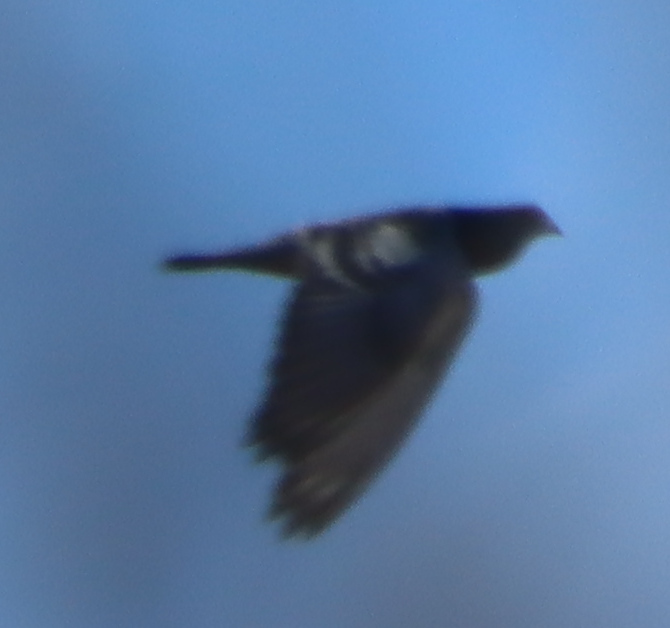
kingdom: Animalia
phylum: Chordata
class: Aves
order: Columbiformes
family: Columbidae
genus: Columba
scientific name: Columba livia
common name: Rock pigeon
